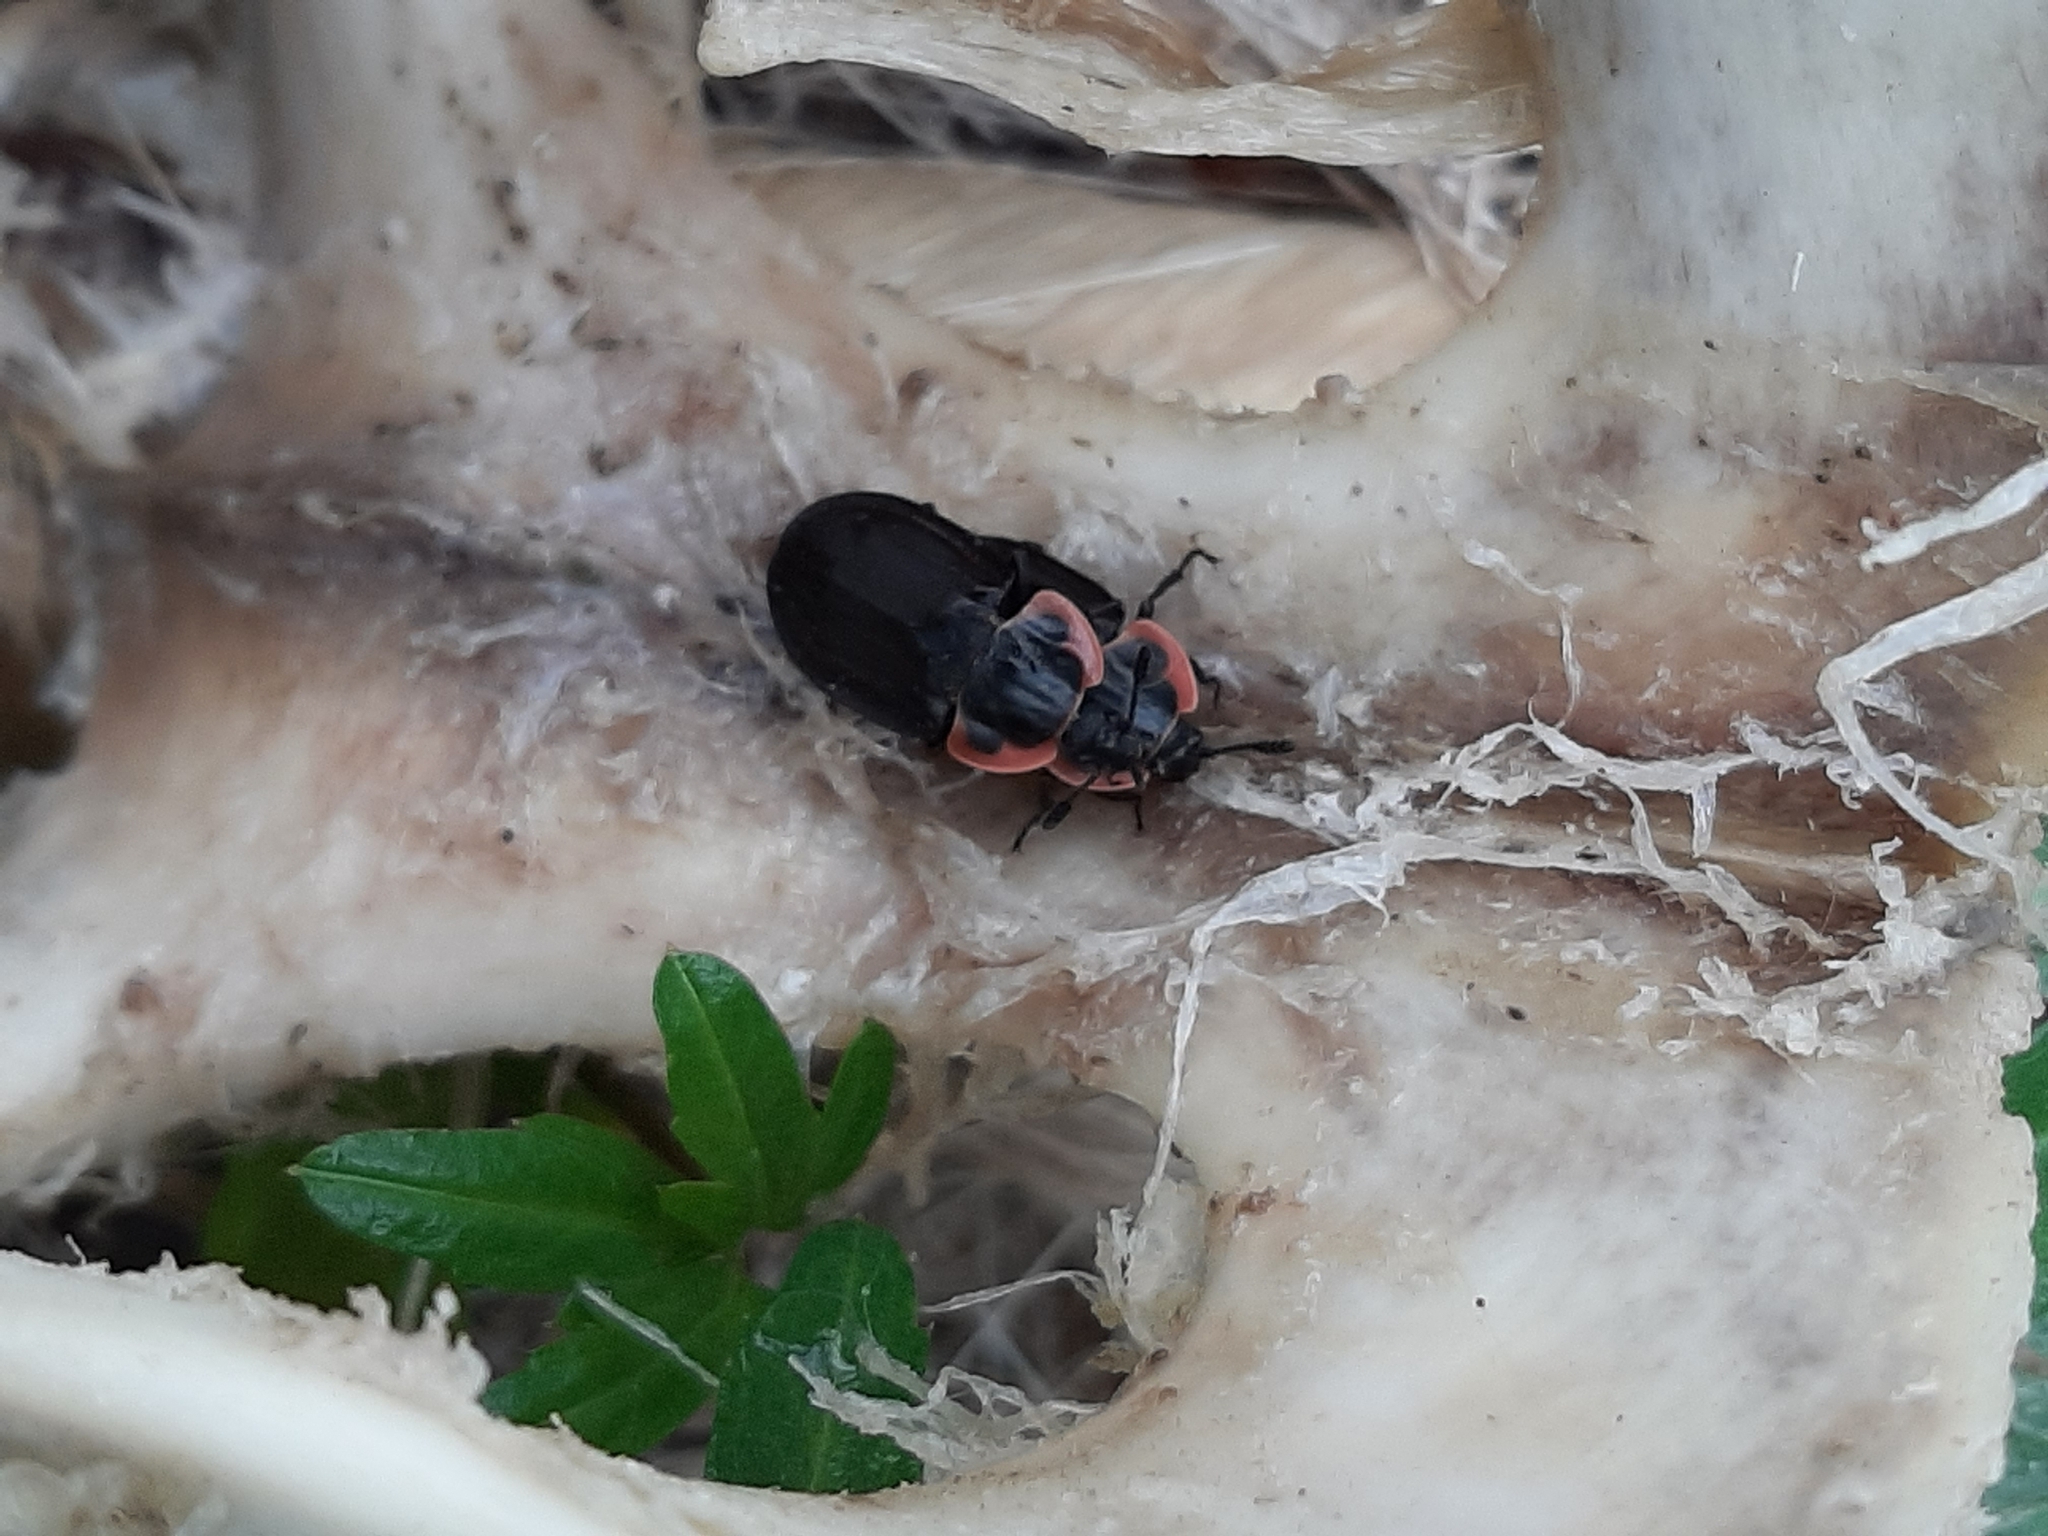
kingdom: Animalia
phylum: Arthropoda
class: Insecta
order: Coleoptera
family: Staphylinidae
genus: Oiceoptoma
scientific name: Oiceoptoma noveboracense
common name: Margined carrion beetle
